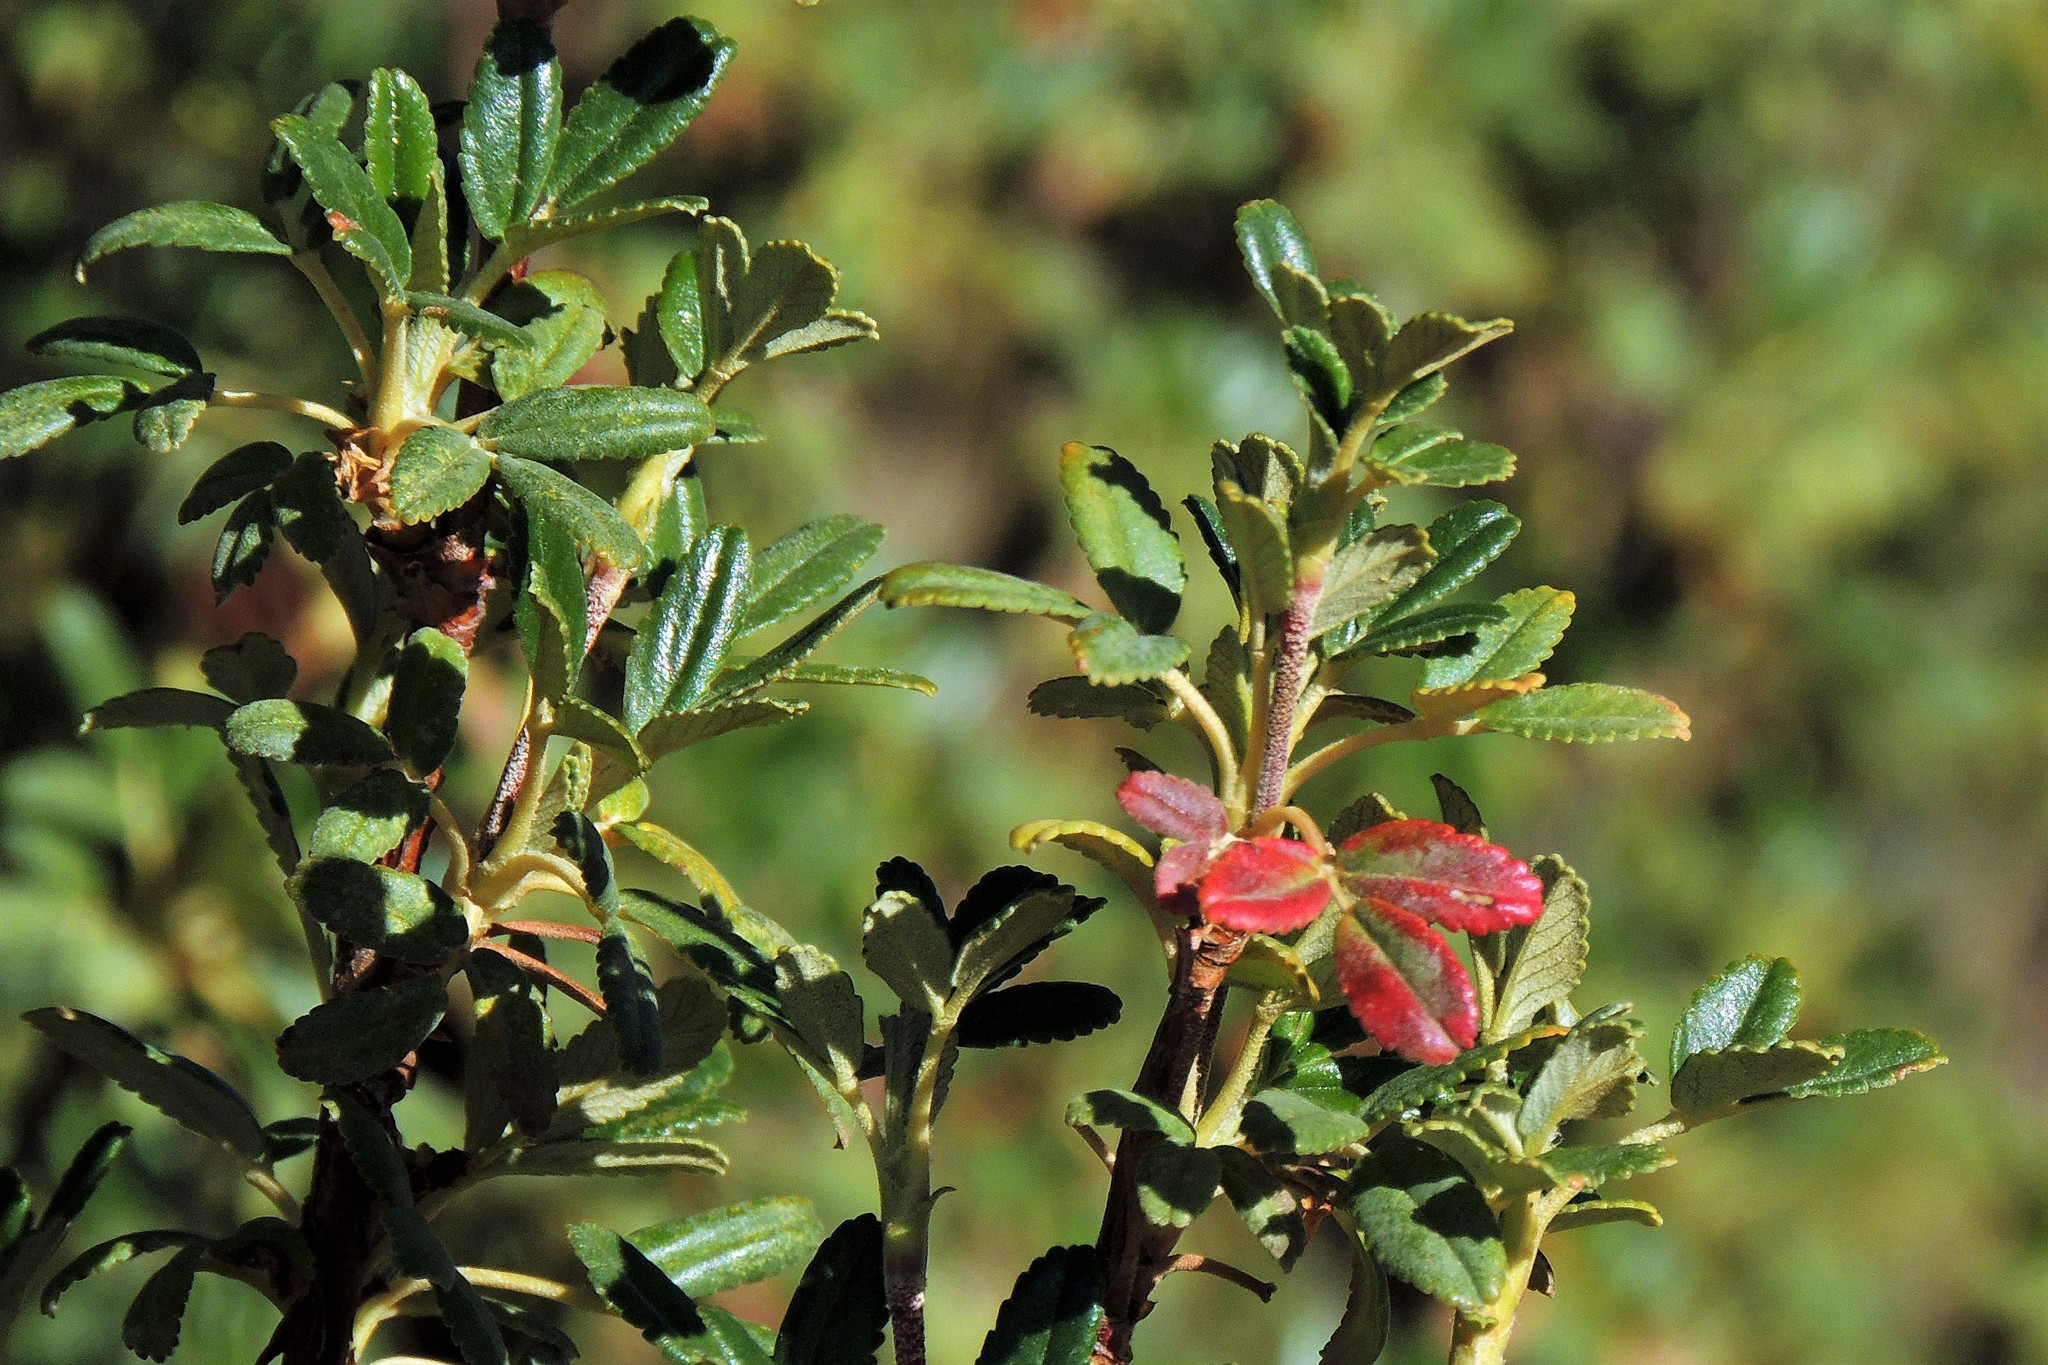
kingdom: Plantae
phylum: Tracheophyta
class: Magnoliopsida
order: Rosales
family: Rosaceae
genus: Polylepis
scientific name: Polylepis tomentella
